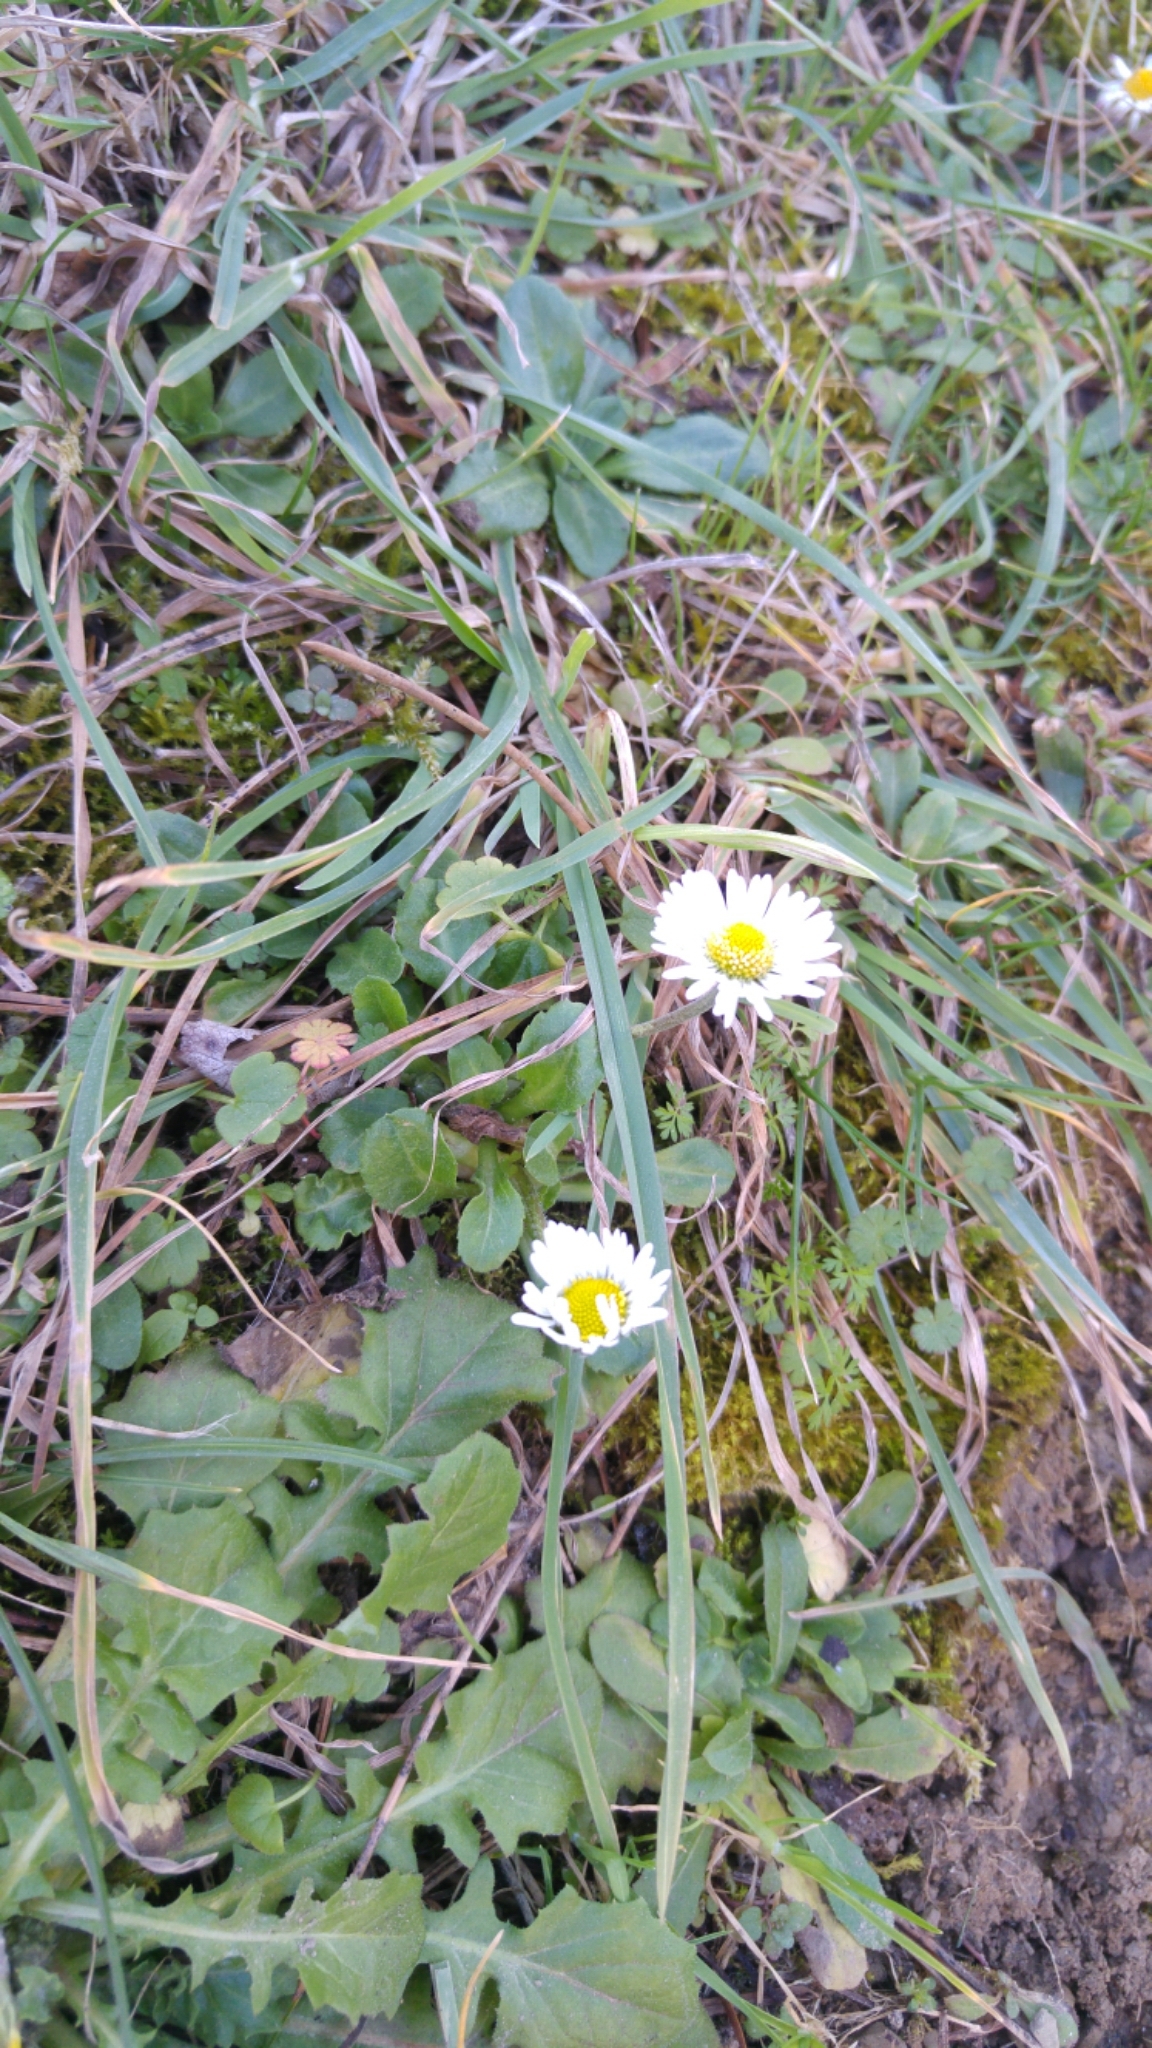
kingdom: Plantae
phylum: Tracheophyta
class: Magnoliopsida
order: Asterales
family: Asteraceae
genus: Bellis
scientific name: Bellis perennis
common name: Lawndaisy
